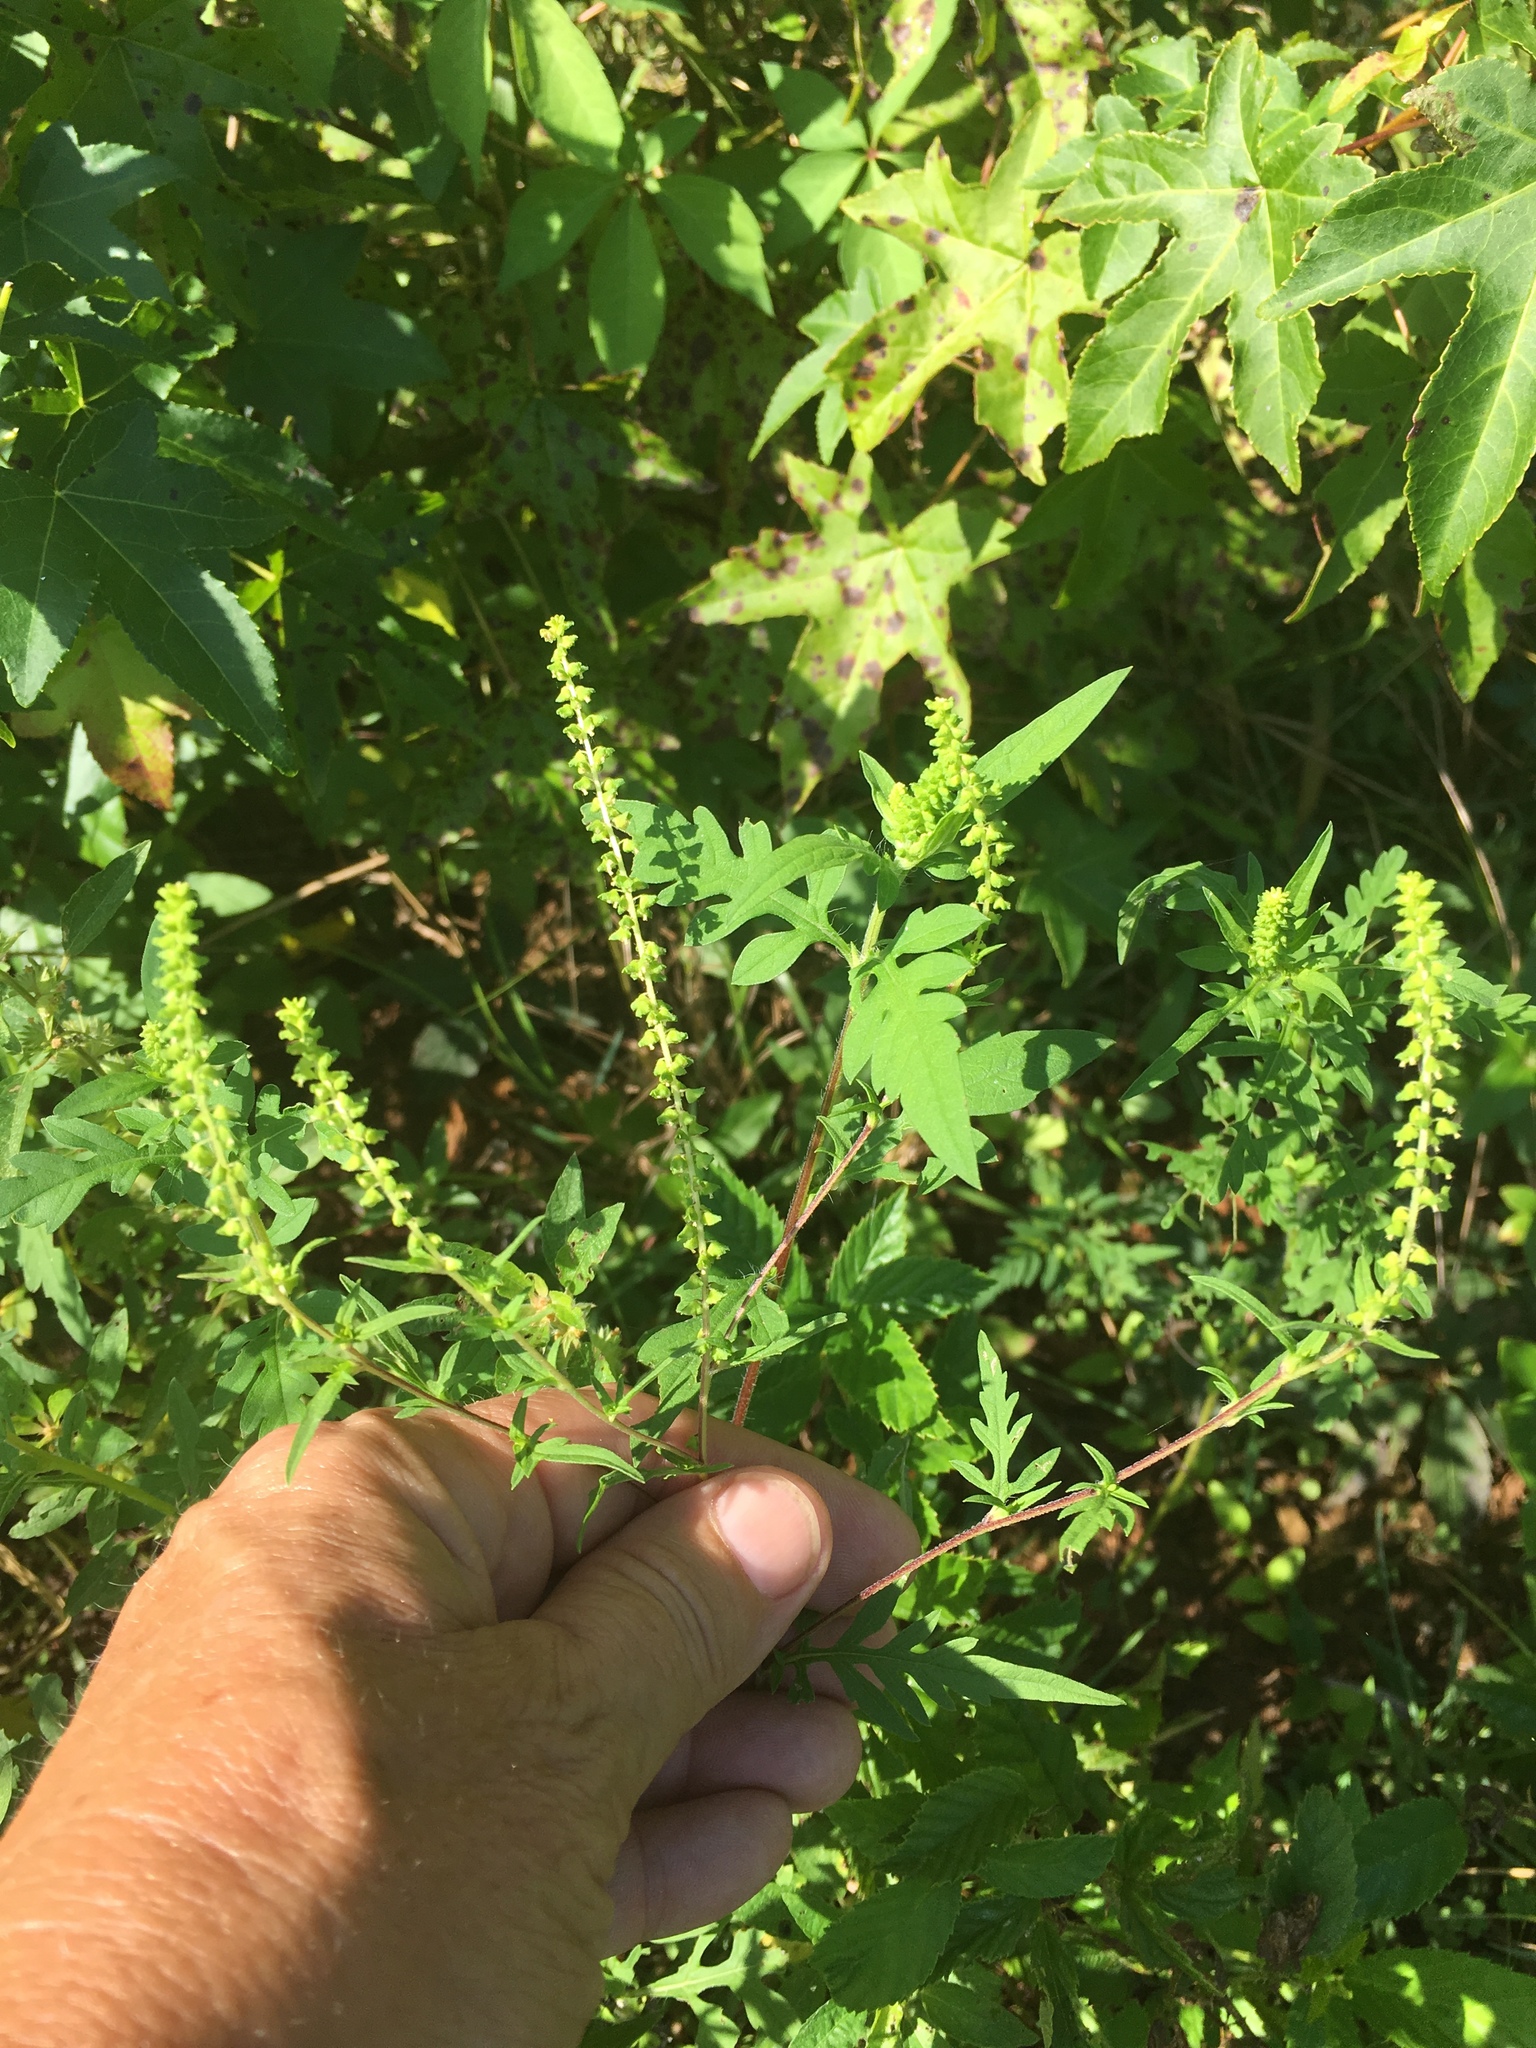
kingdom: Plantae
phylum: Tracheophyta
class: Magnoliopsida
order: Asterales
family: Asteraceae
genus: Ambrosia
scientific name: Ambrosia artemisiifolia
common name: Annual ragweed
